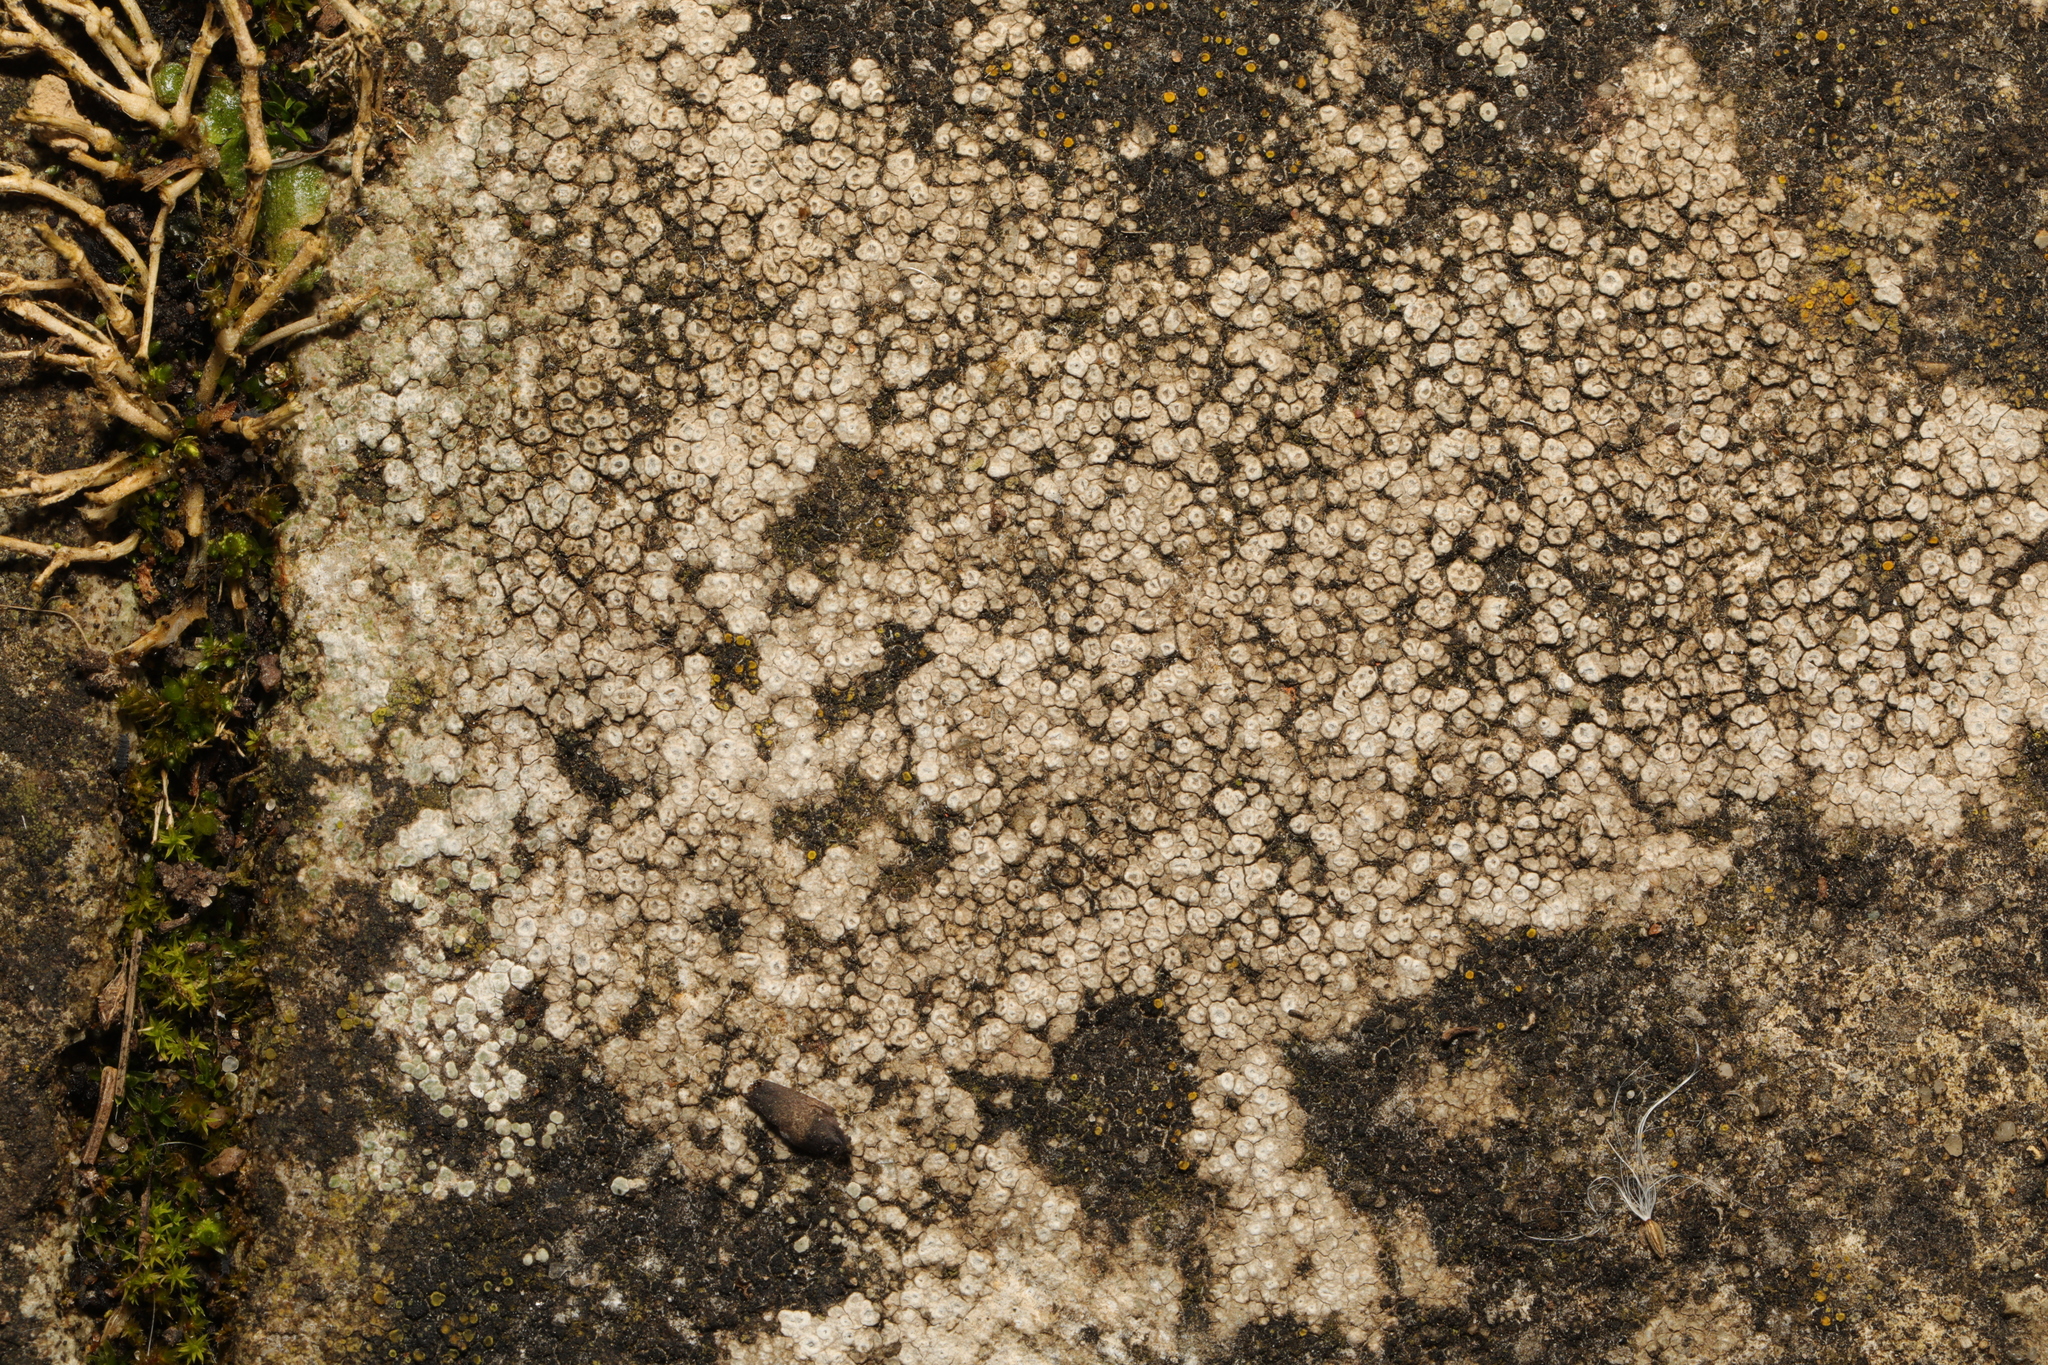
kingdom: Fungi
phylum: Ascomycota
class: Lecanoromycetes
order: Pertusariales
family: Megasporaceae
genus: Circinaria
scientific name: Circinaria contorta
